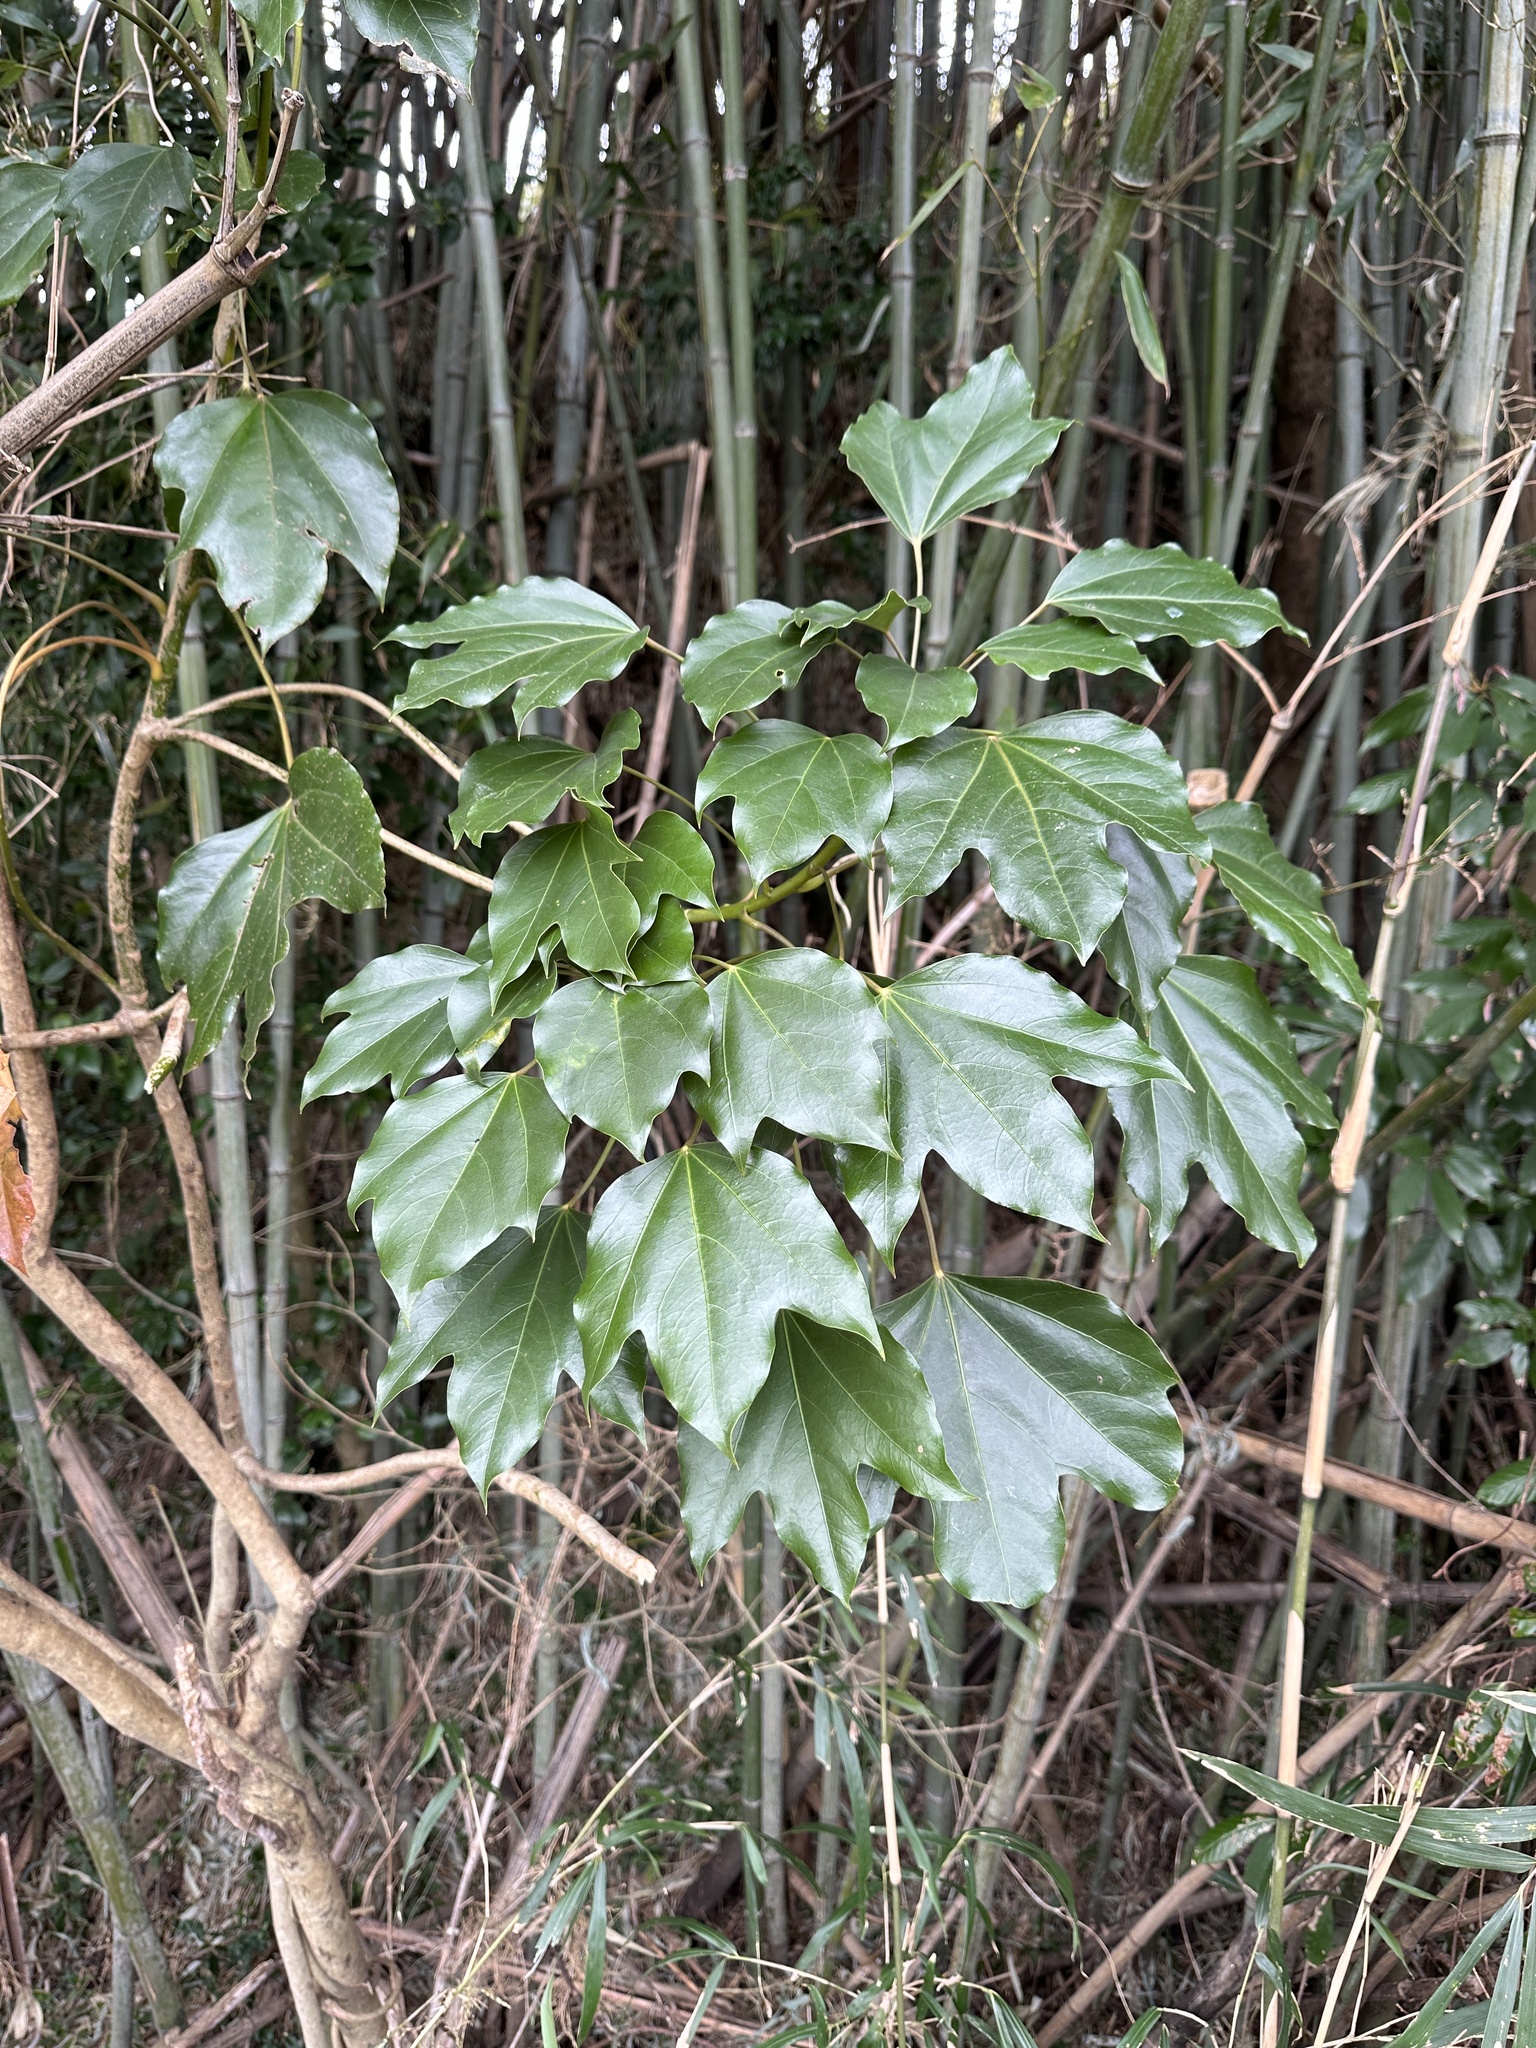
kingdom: Plantae
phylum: Tracheophyta
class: Magnoliopsida
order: Apiales
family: Araliaceae
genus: Dendropanax
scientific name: Dendropanax trifidus
